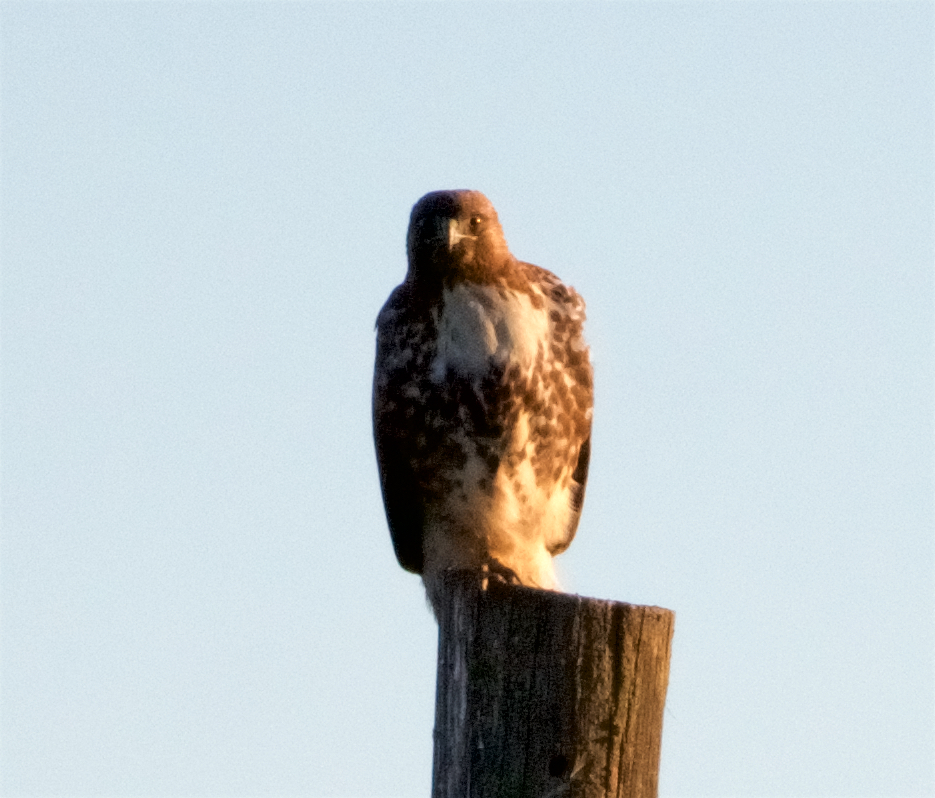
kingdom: Animalia
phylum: Chordata
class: Aves
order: Accipitriformes
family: Accipitridae
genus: Buteo
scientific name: Buteo jamaicensis
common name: Red-tailed hawk
